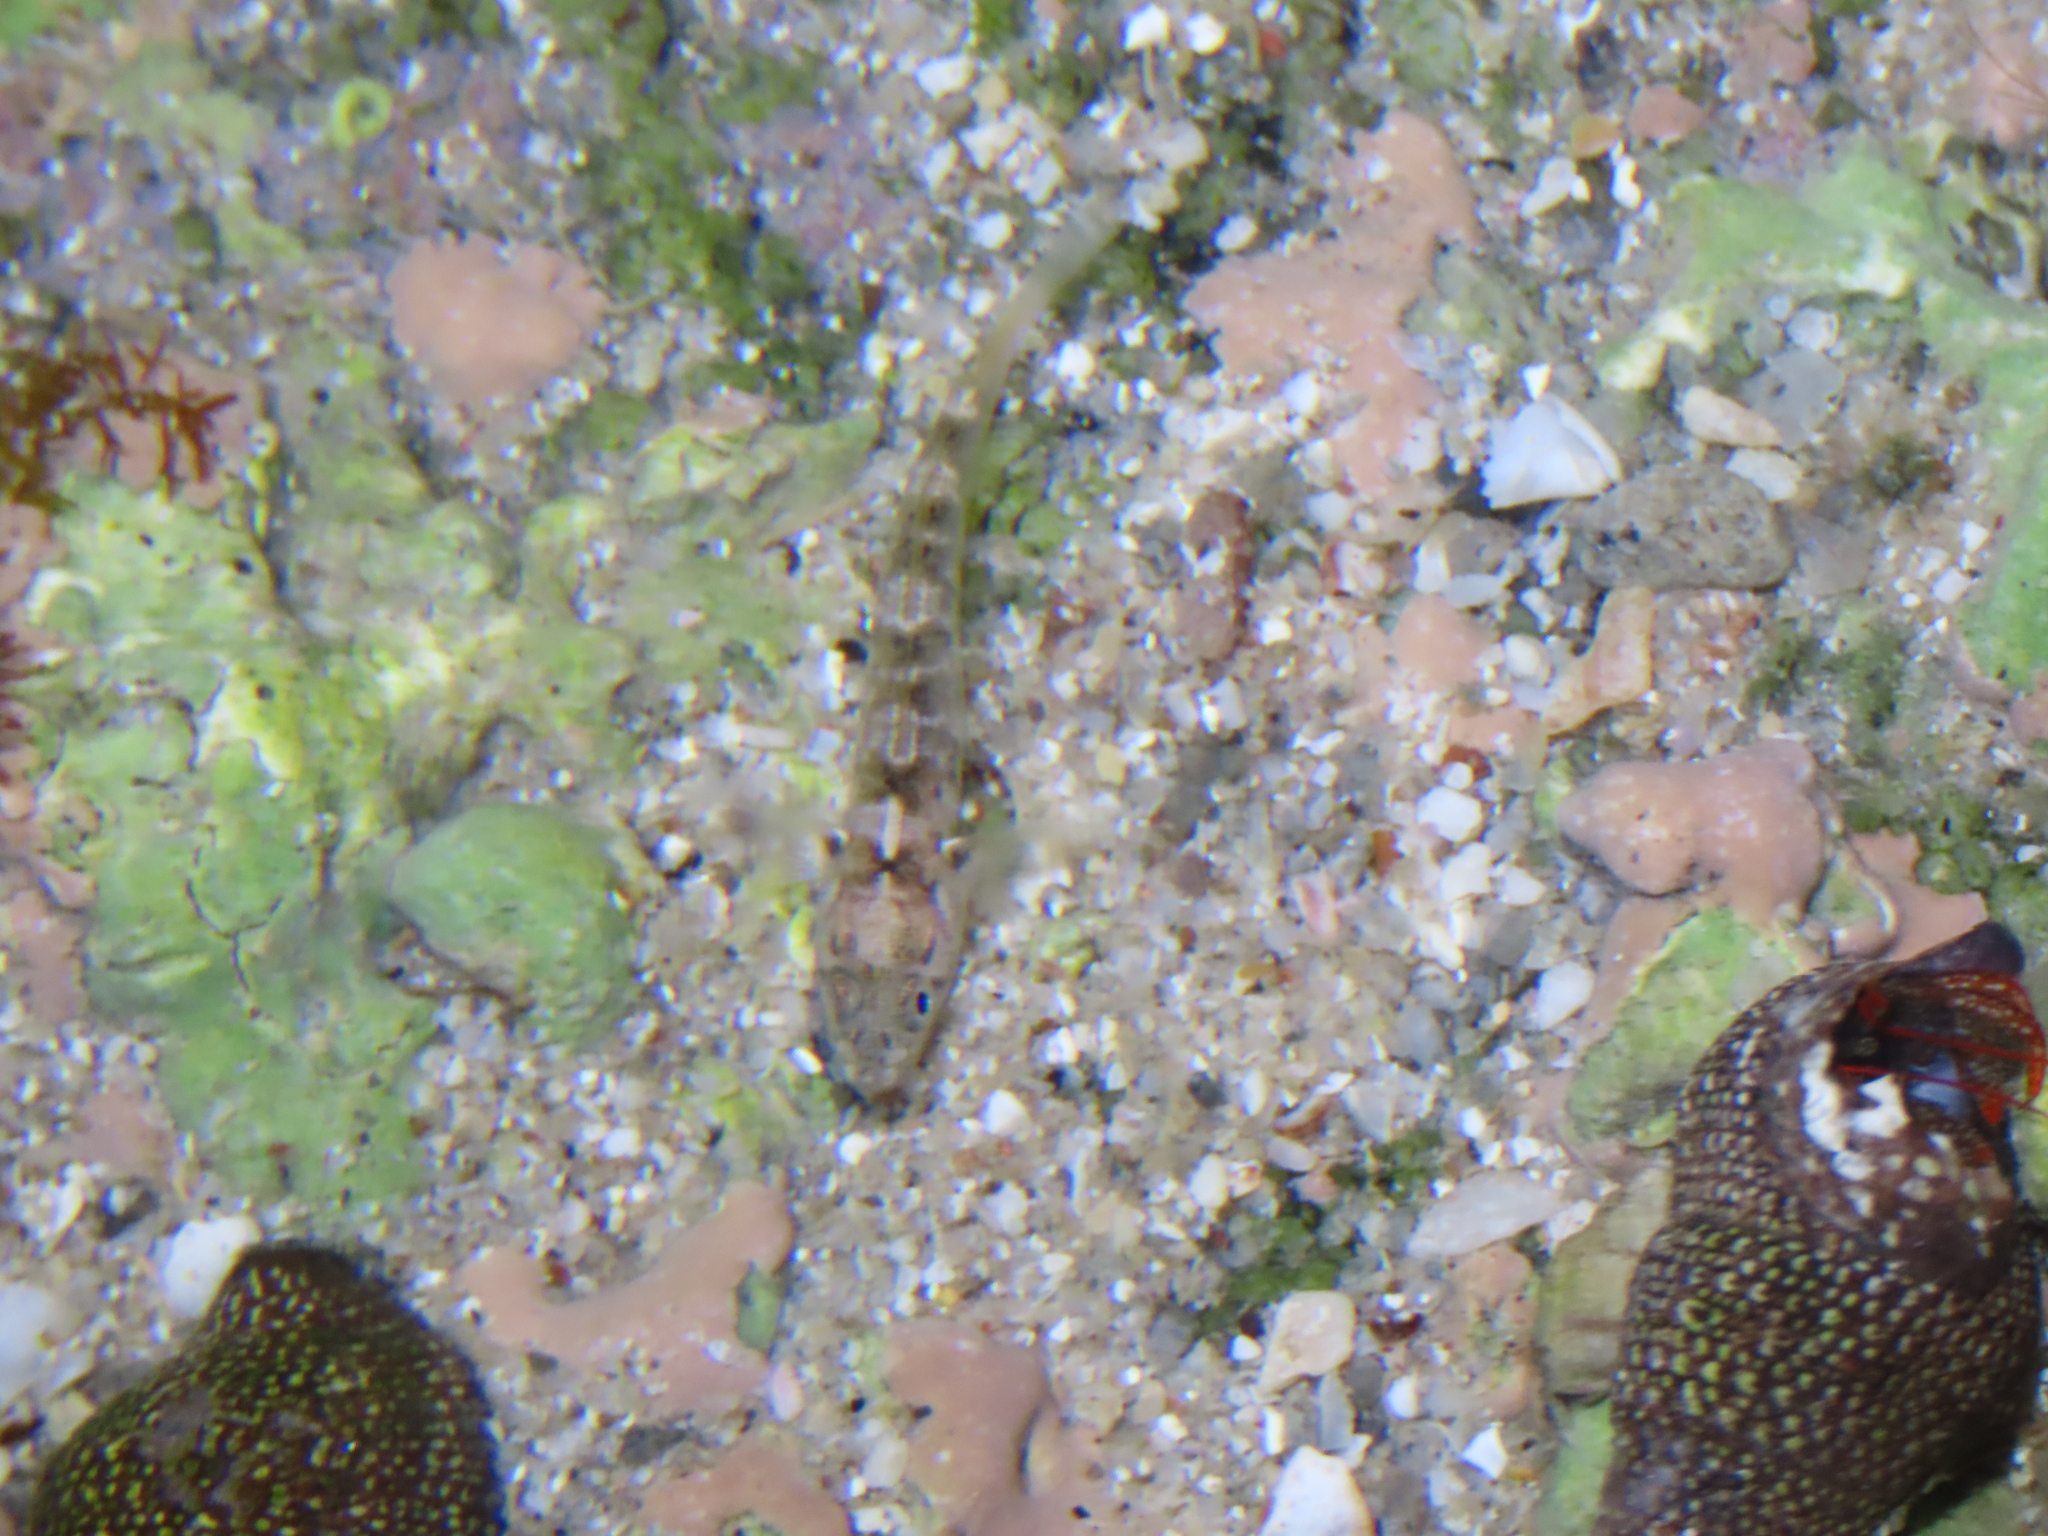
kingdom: Animalia
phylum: Chordata
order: Perciformes
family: Gobiidae
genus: Gillichthys
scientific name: Gillichthys seta
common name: Shortjaw mudsucker
